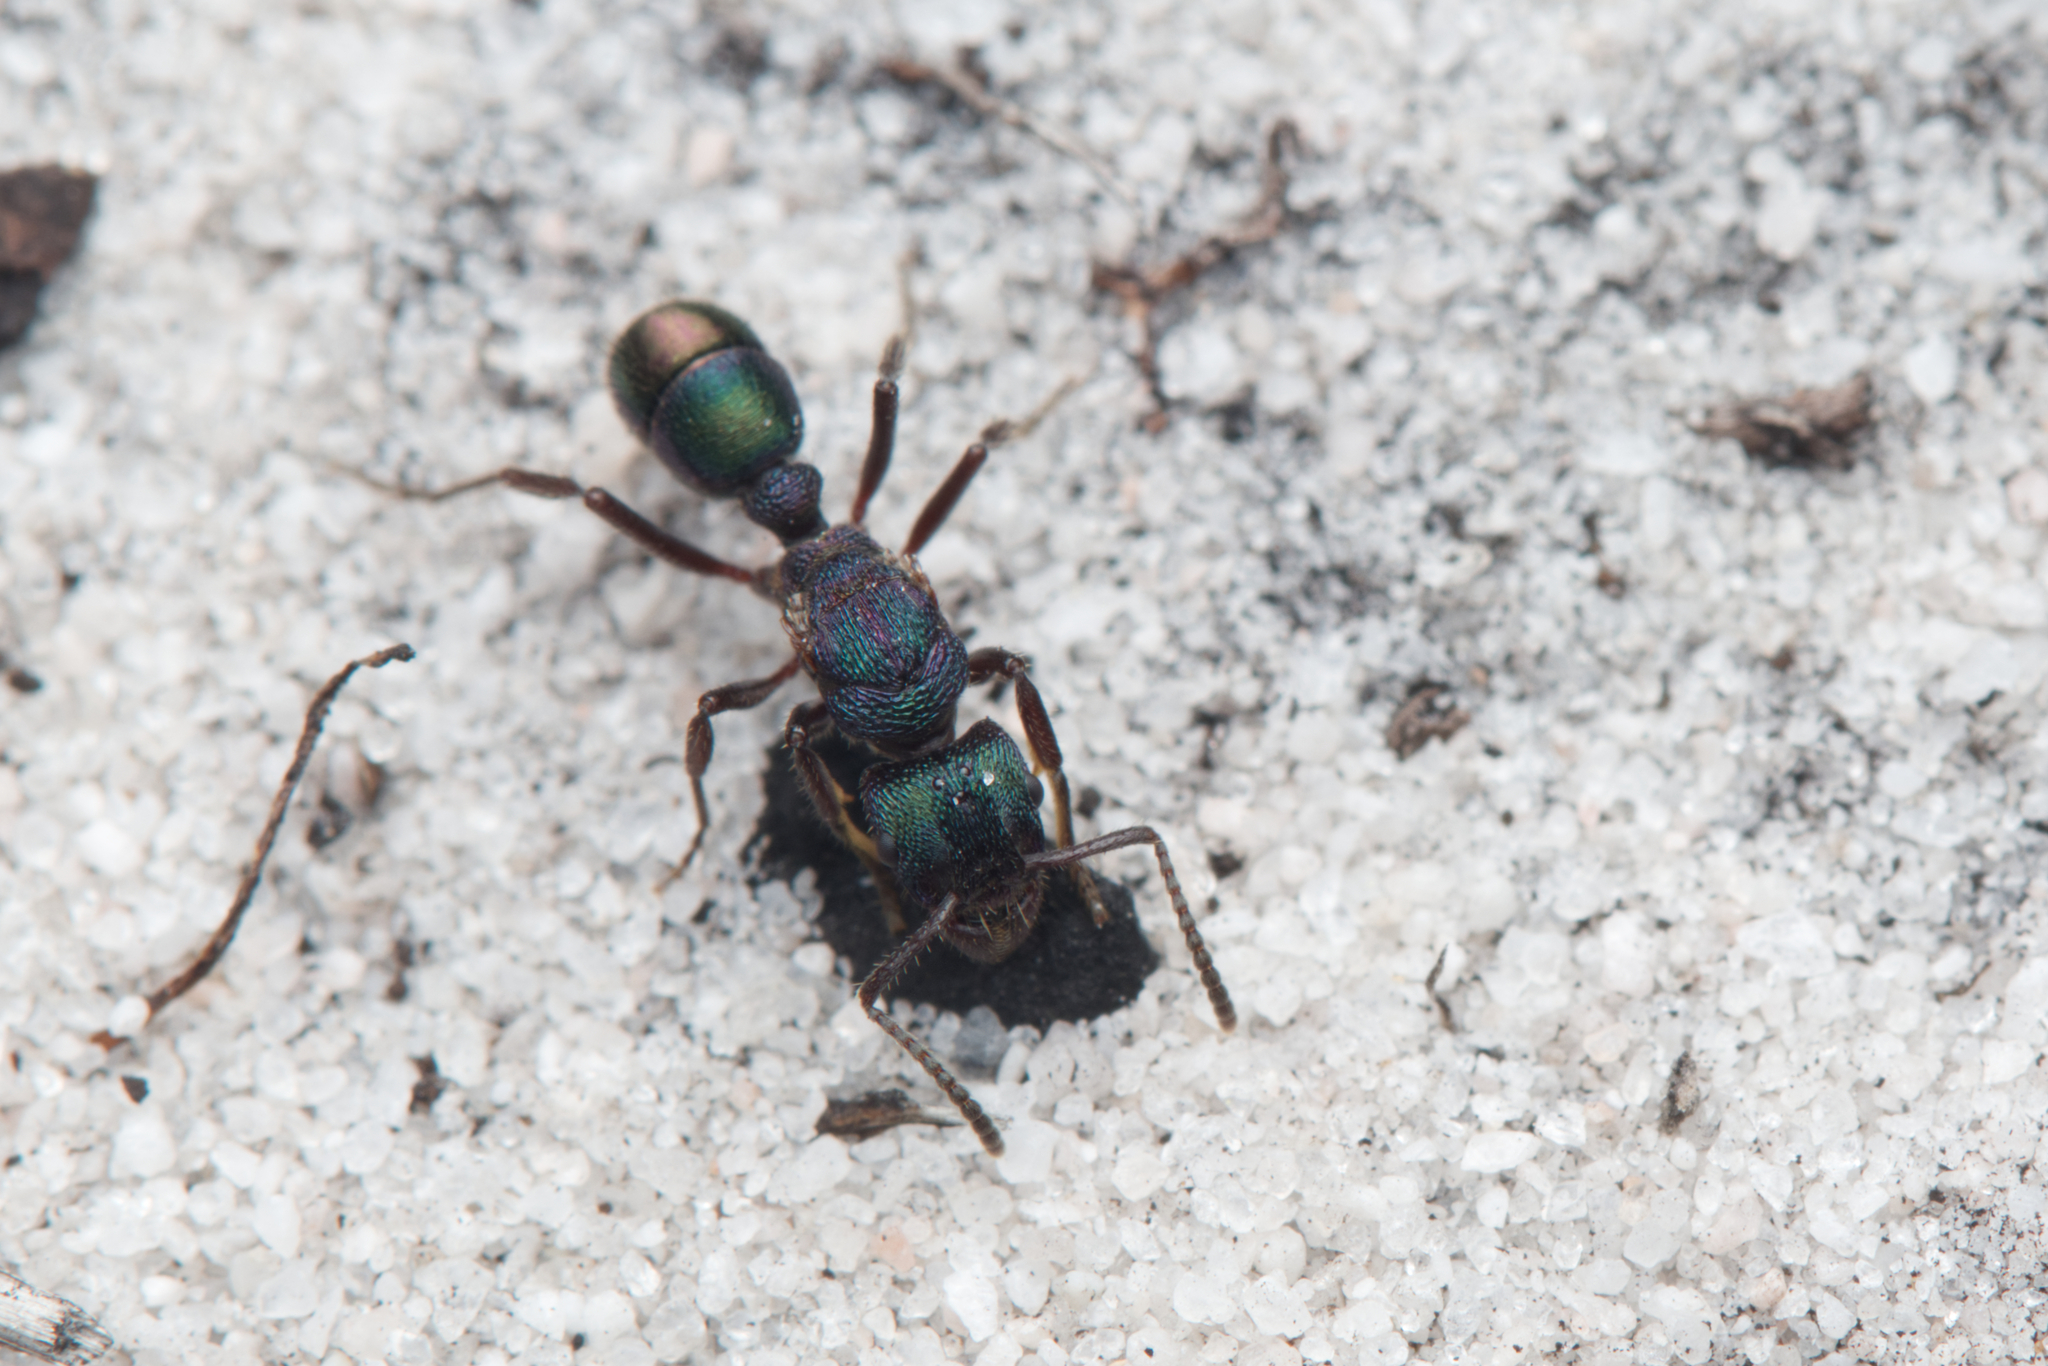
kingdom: Animalia
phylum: Arthropoda
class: Insecta
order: Hymenoptera
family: Formicidae
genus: Rhytidoponera
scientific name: Rhytidoponera metallica
